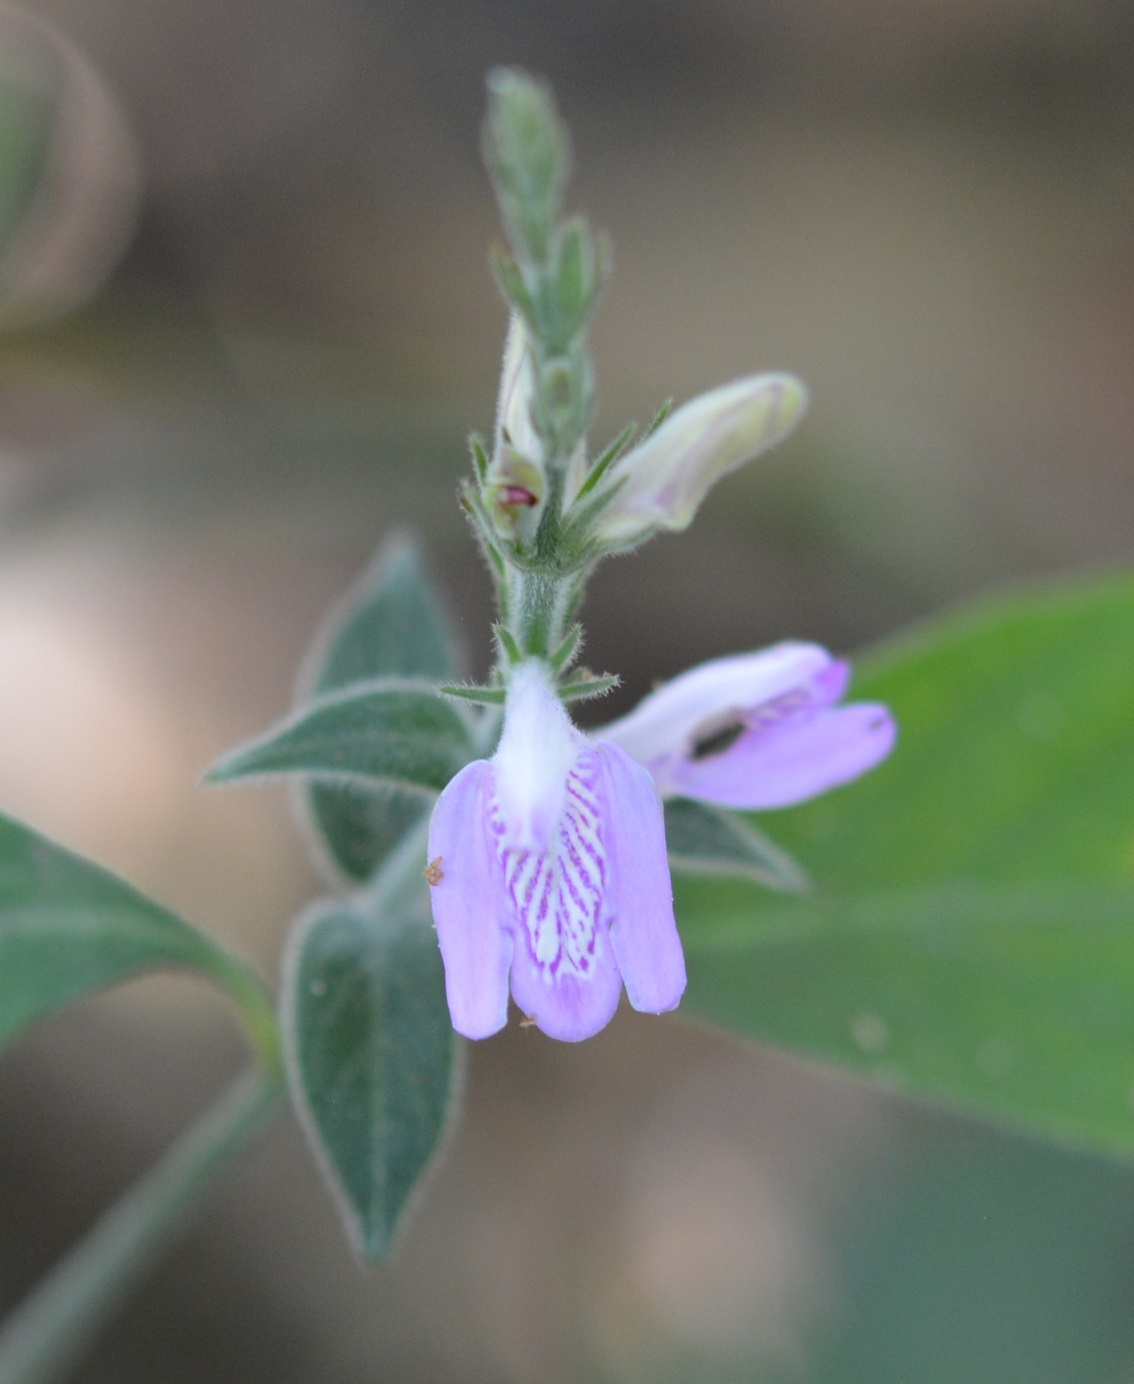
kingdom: Plantae
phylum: Tracheophyta
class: Magnoliopsida
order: Lamiales
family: Acanthaceae
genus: Dianthera
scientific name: Dianthera breviflora
